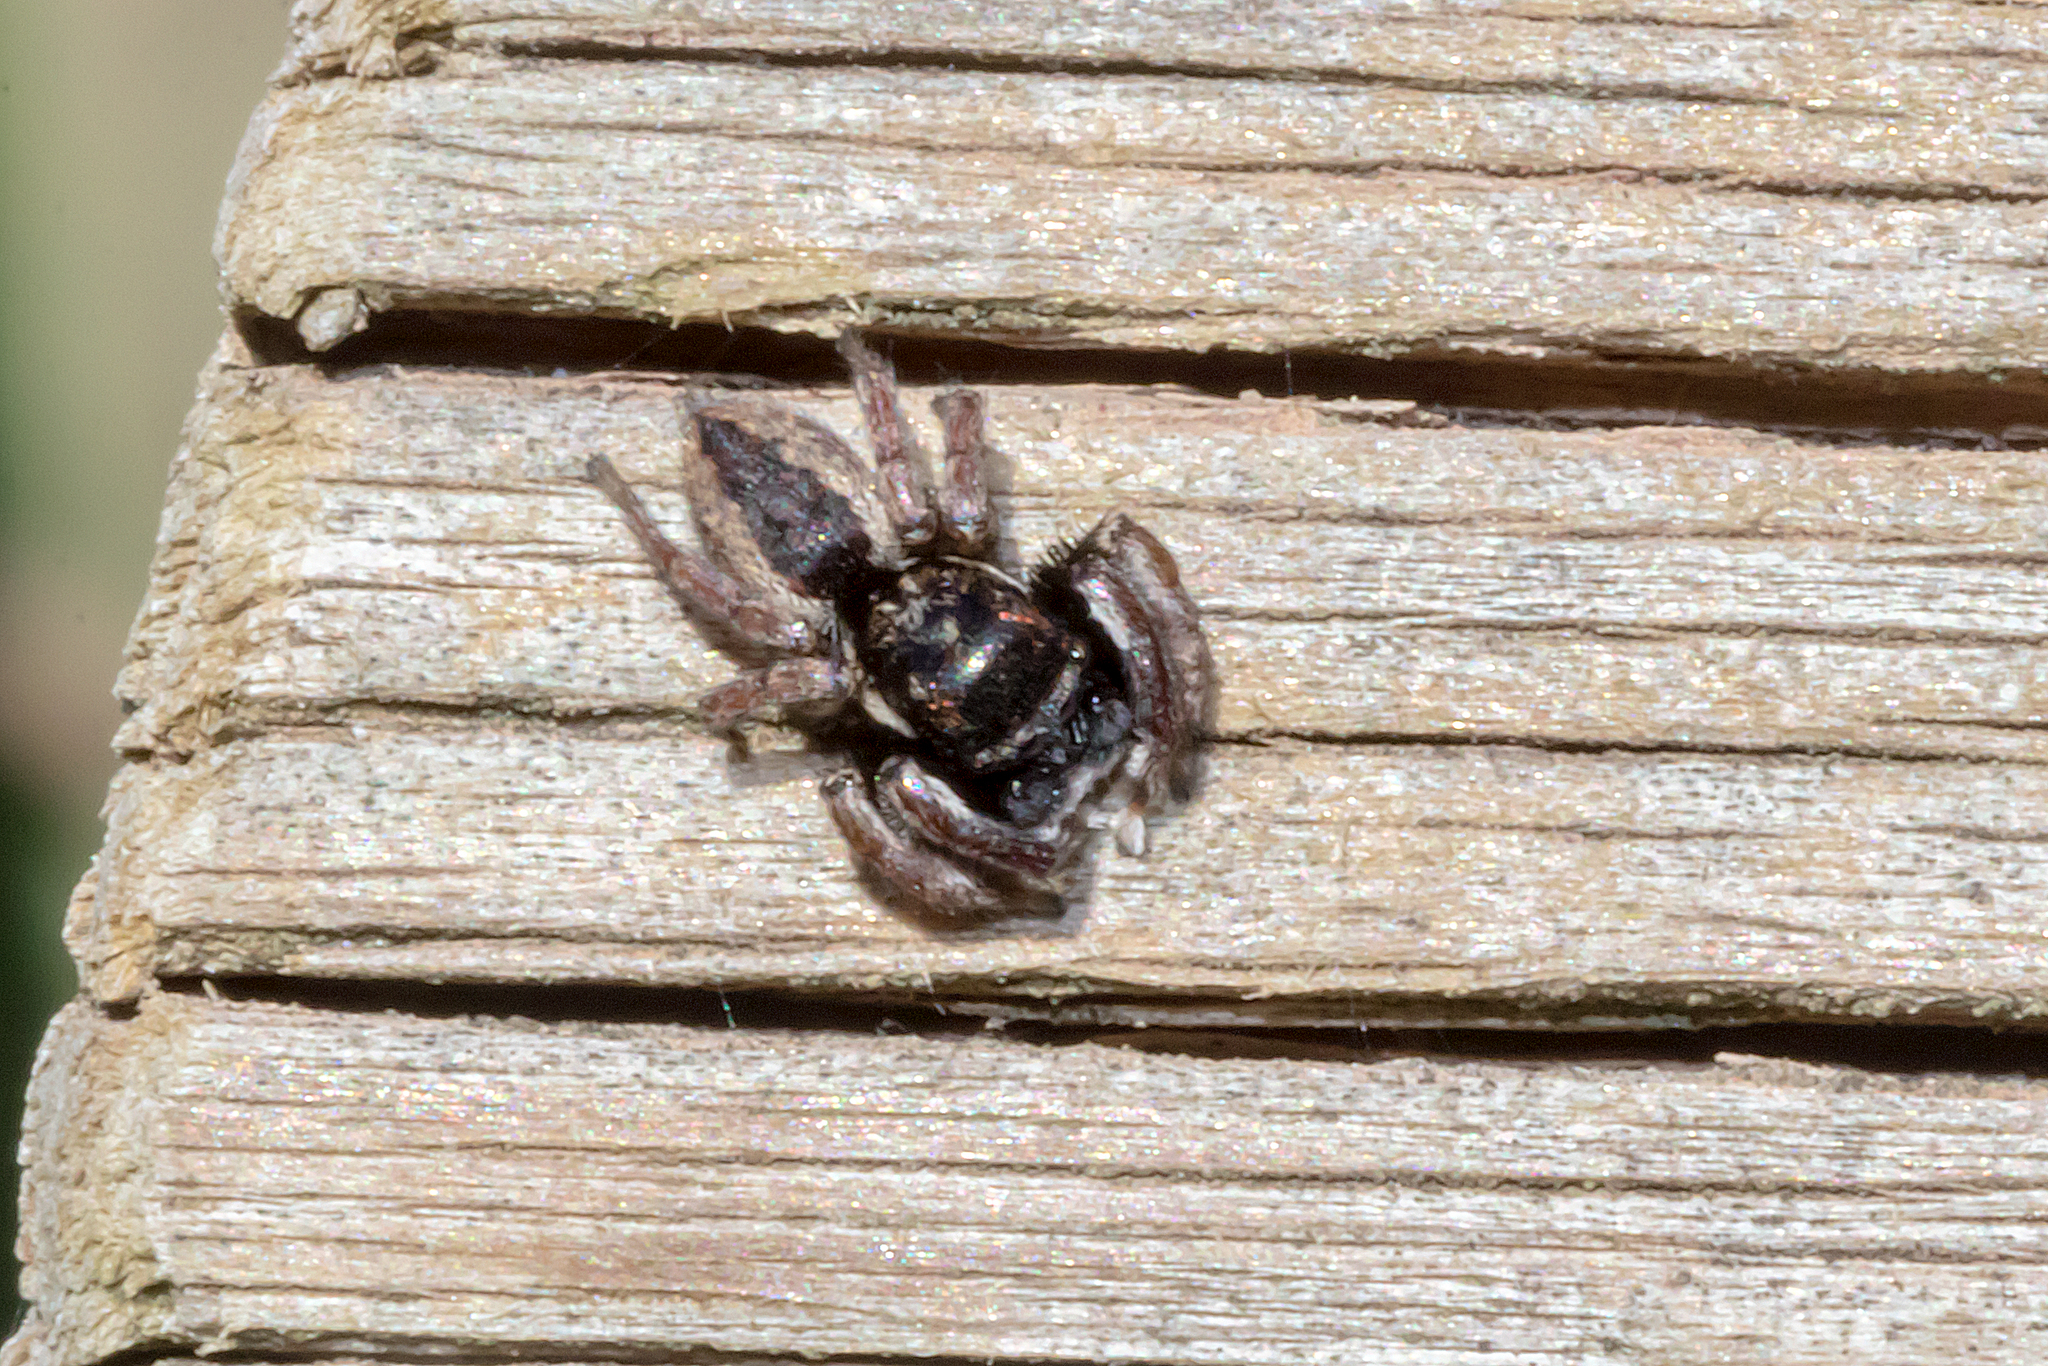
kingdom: Animalia
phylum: Arthropoda
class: Arachnida
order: Araneae
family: Salticidae
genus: Jotus
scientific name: Jotus frosti
